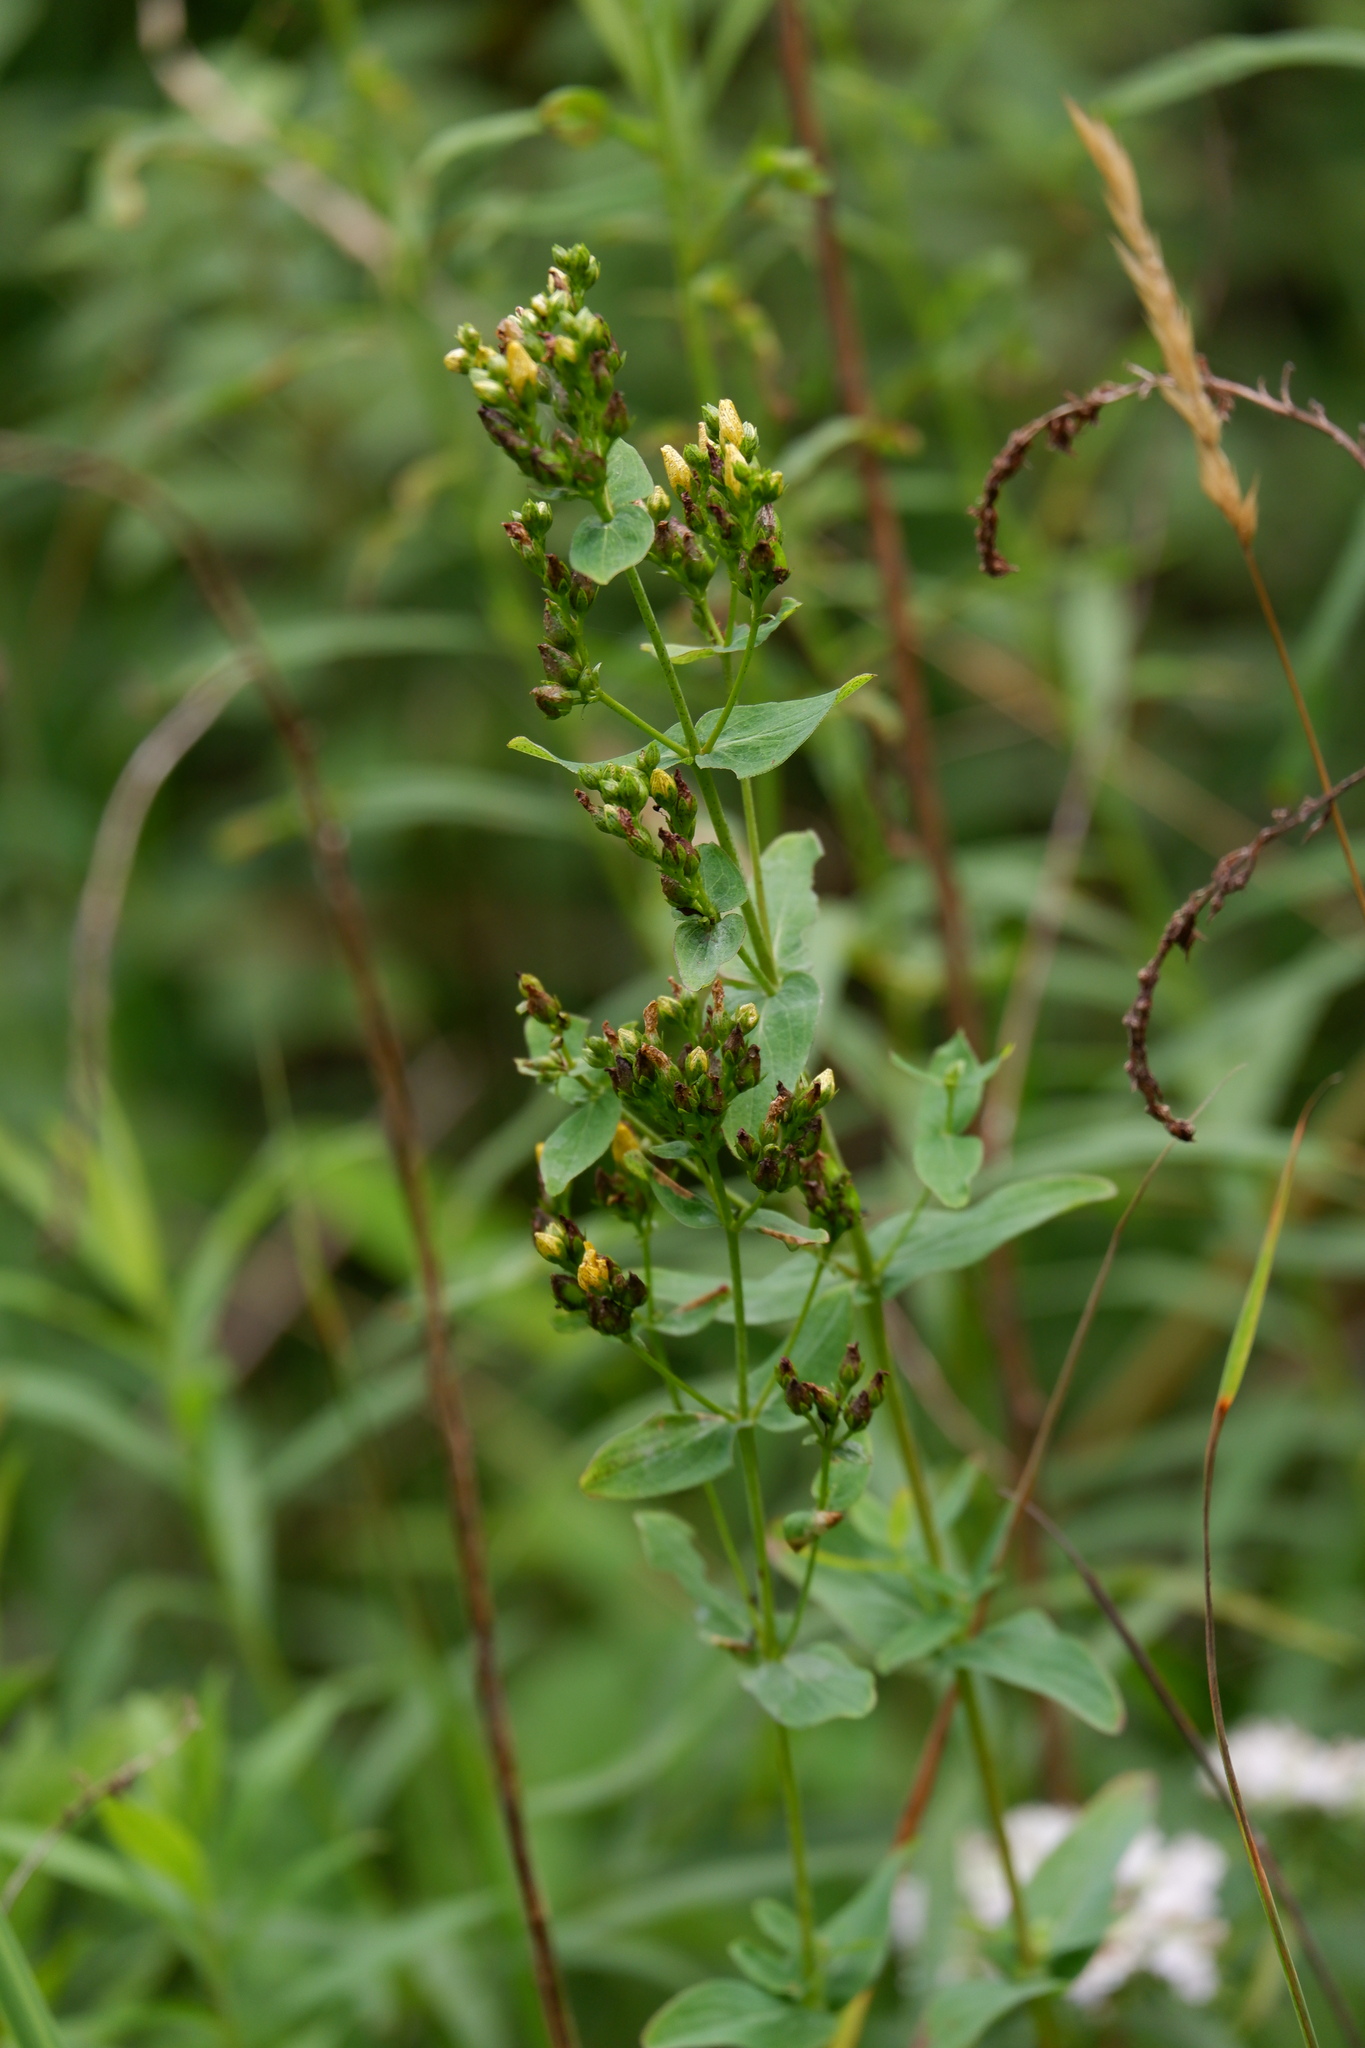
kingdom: Plantae
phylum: Tracheophyta
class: Magnoliopsida
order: Malpighiales
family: Hypericaceae
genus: Hypericum
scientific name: Hypericum punctatum
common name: Spotted st. john's-wort
